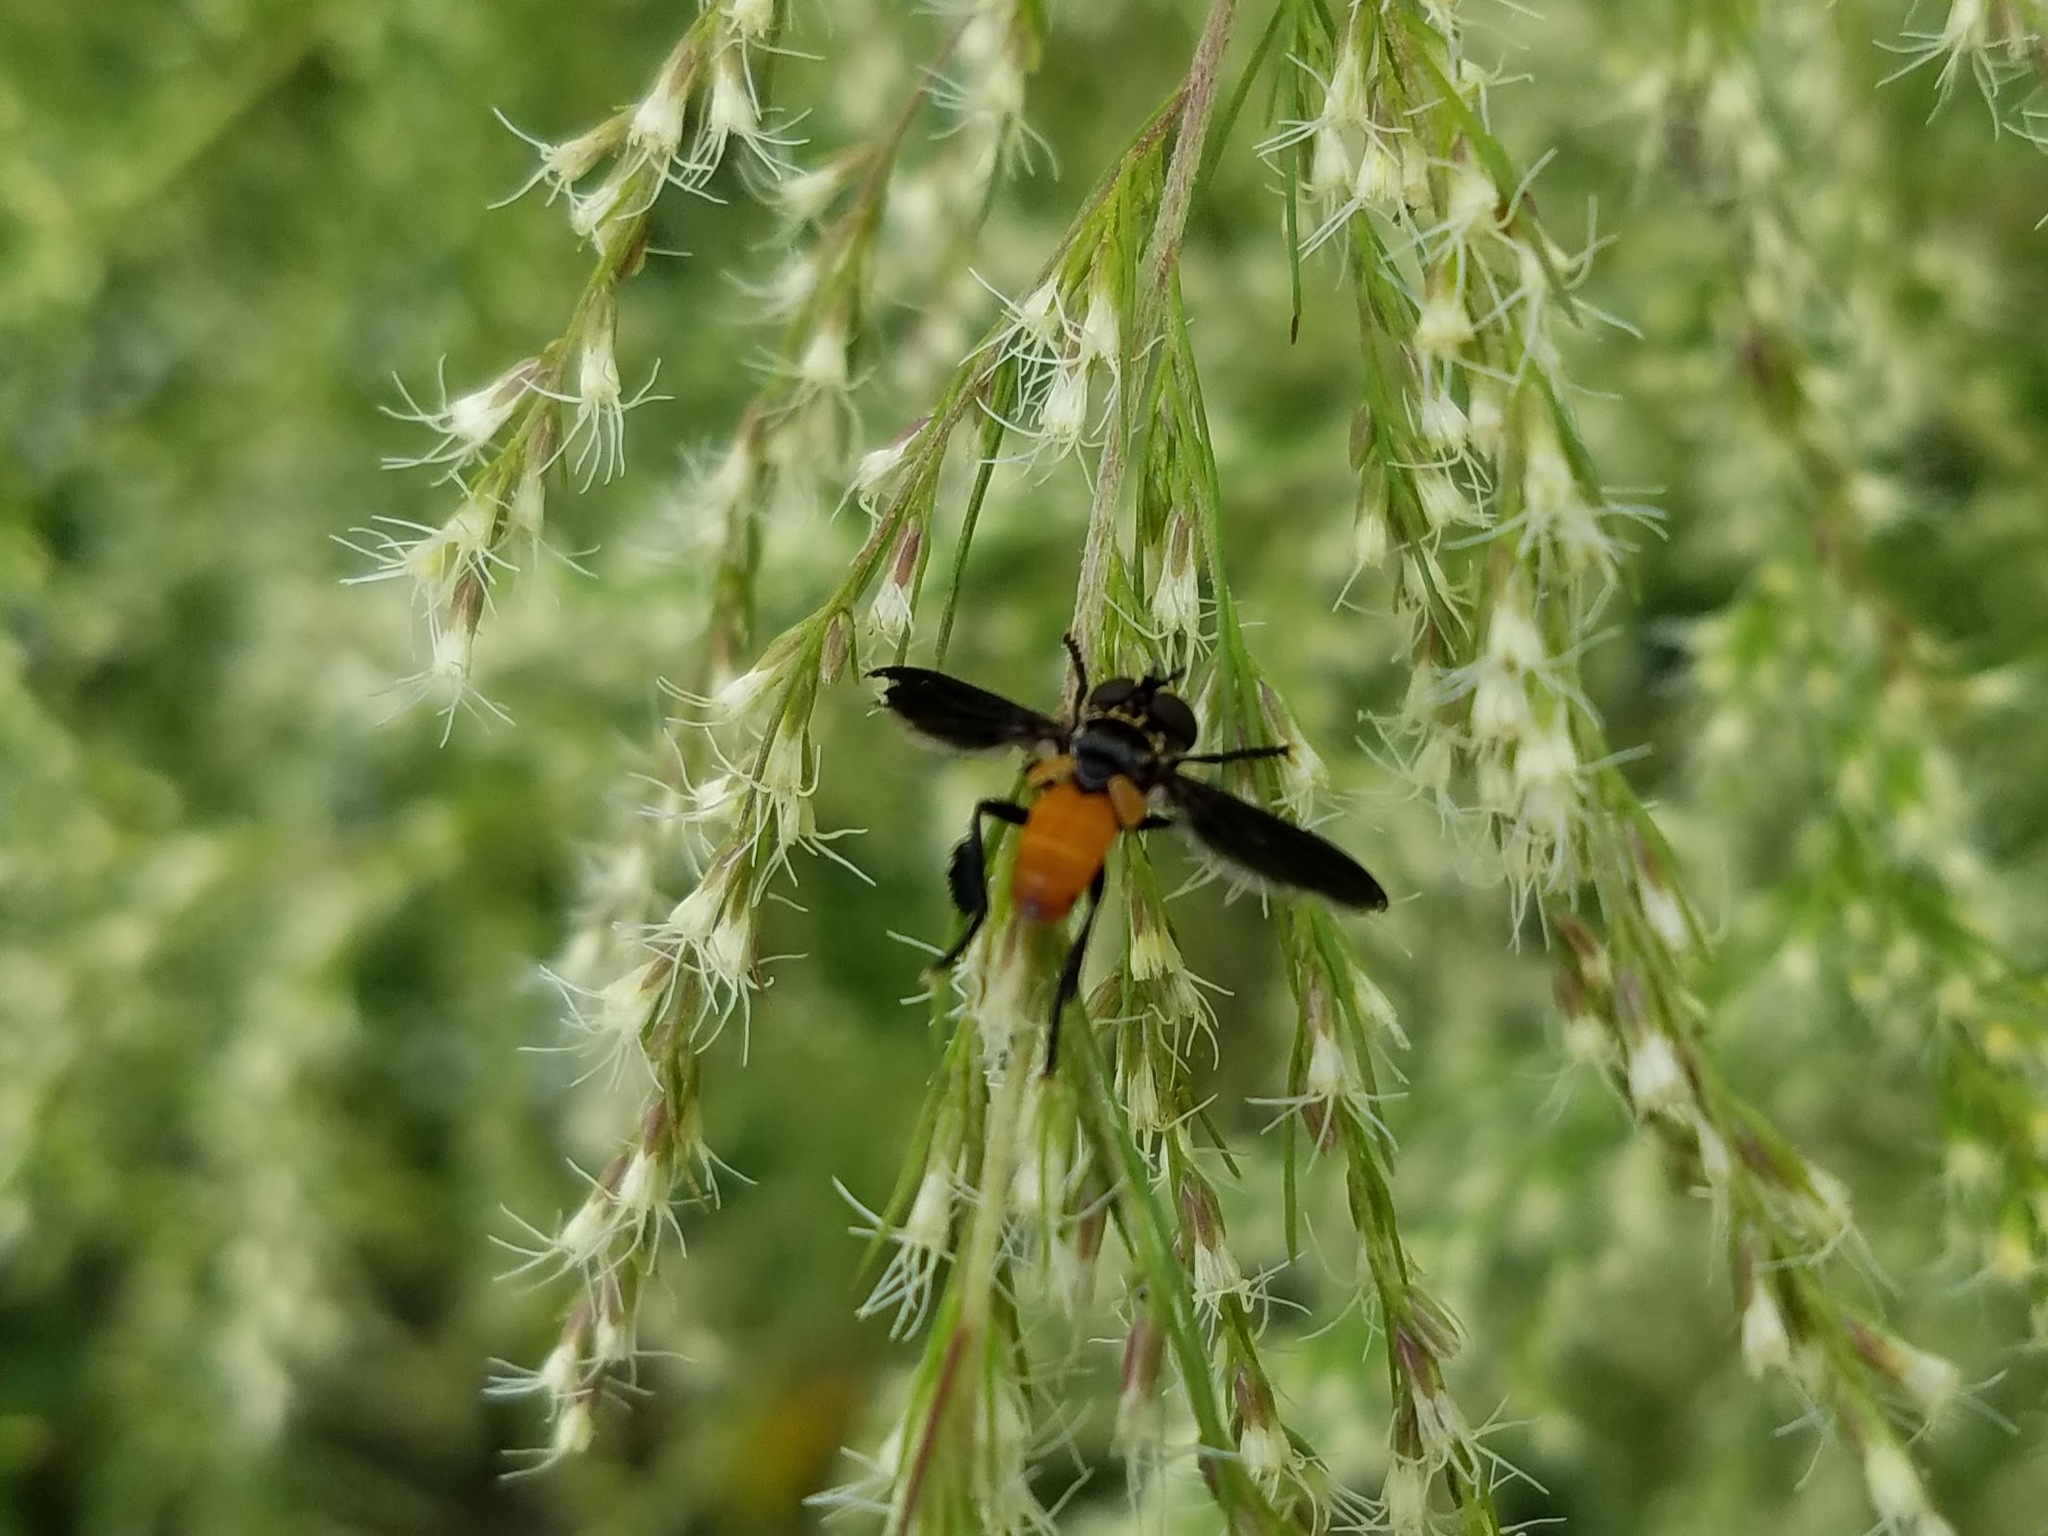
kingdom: Animalia
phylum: Arthropoda
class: Insecta
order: Diptera
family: Tachinidae
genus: Trichopoda
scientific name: Trichopoda pennipes
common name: Tachinid fly
